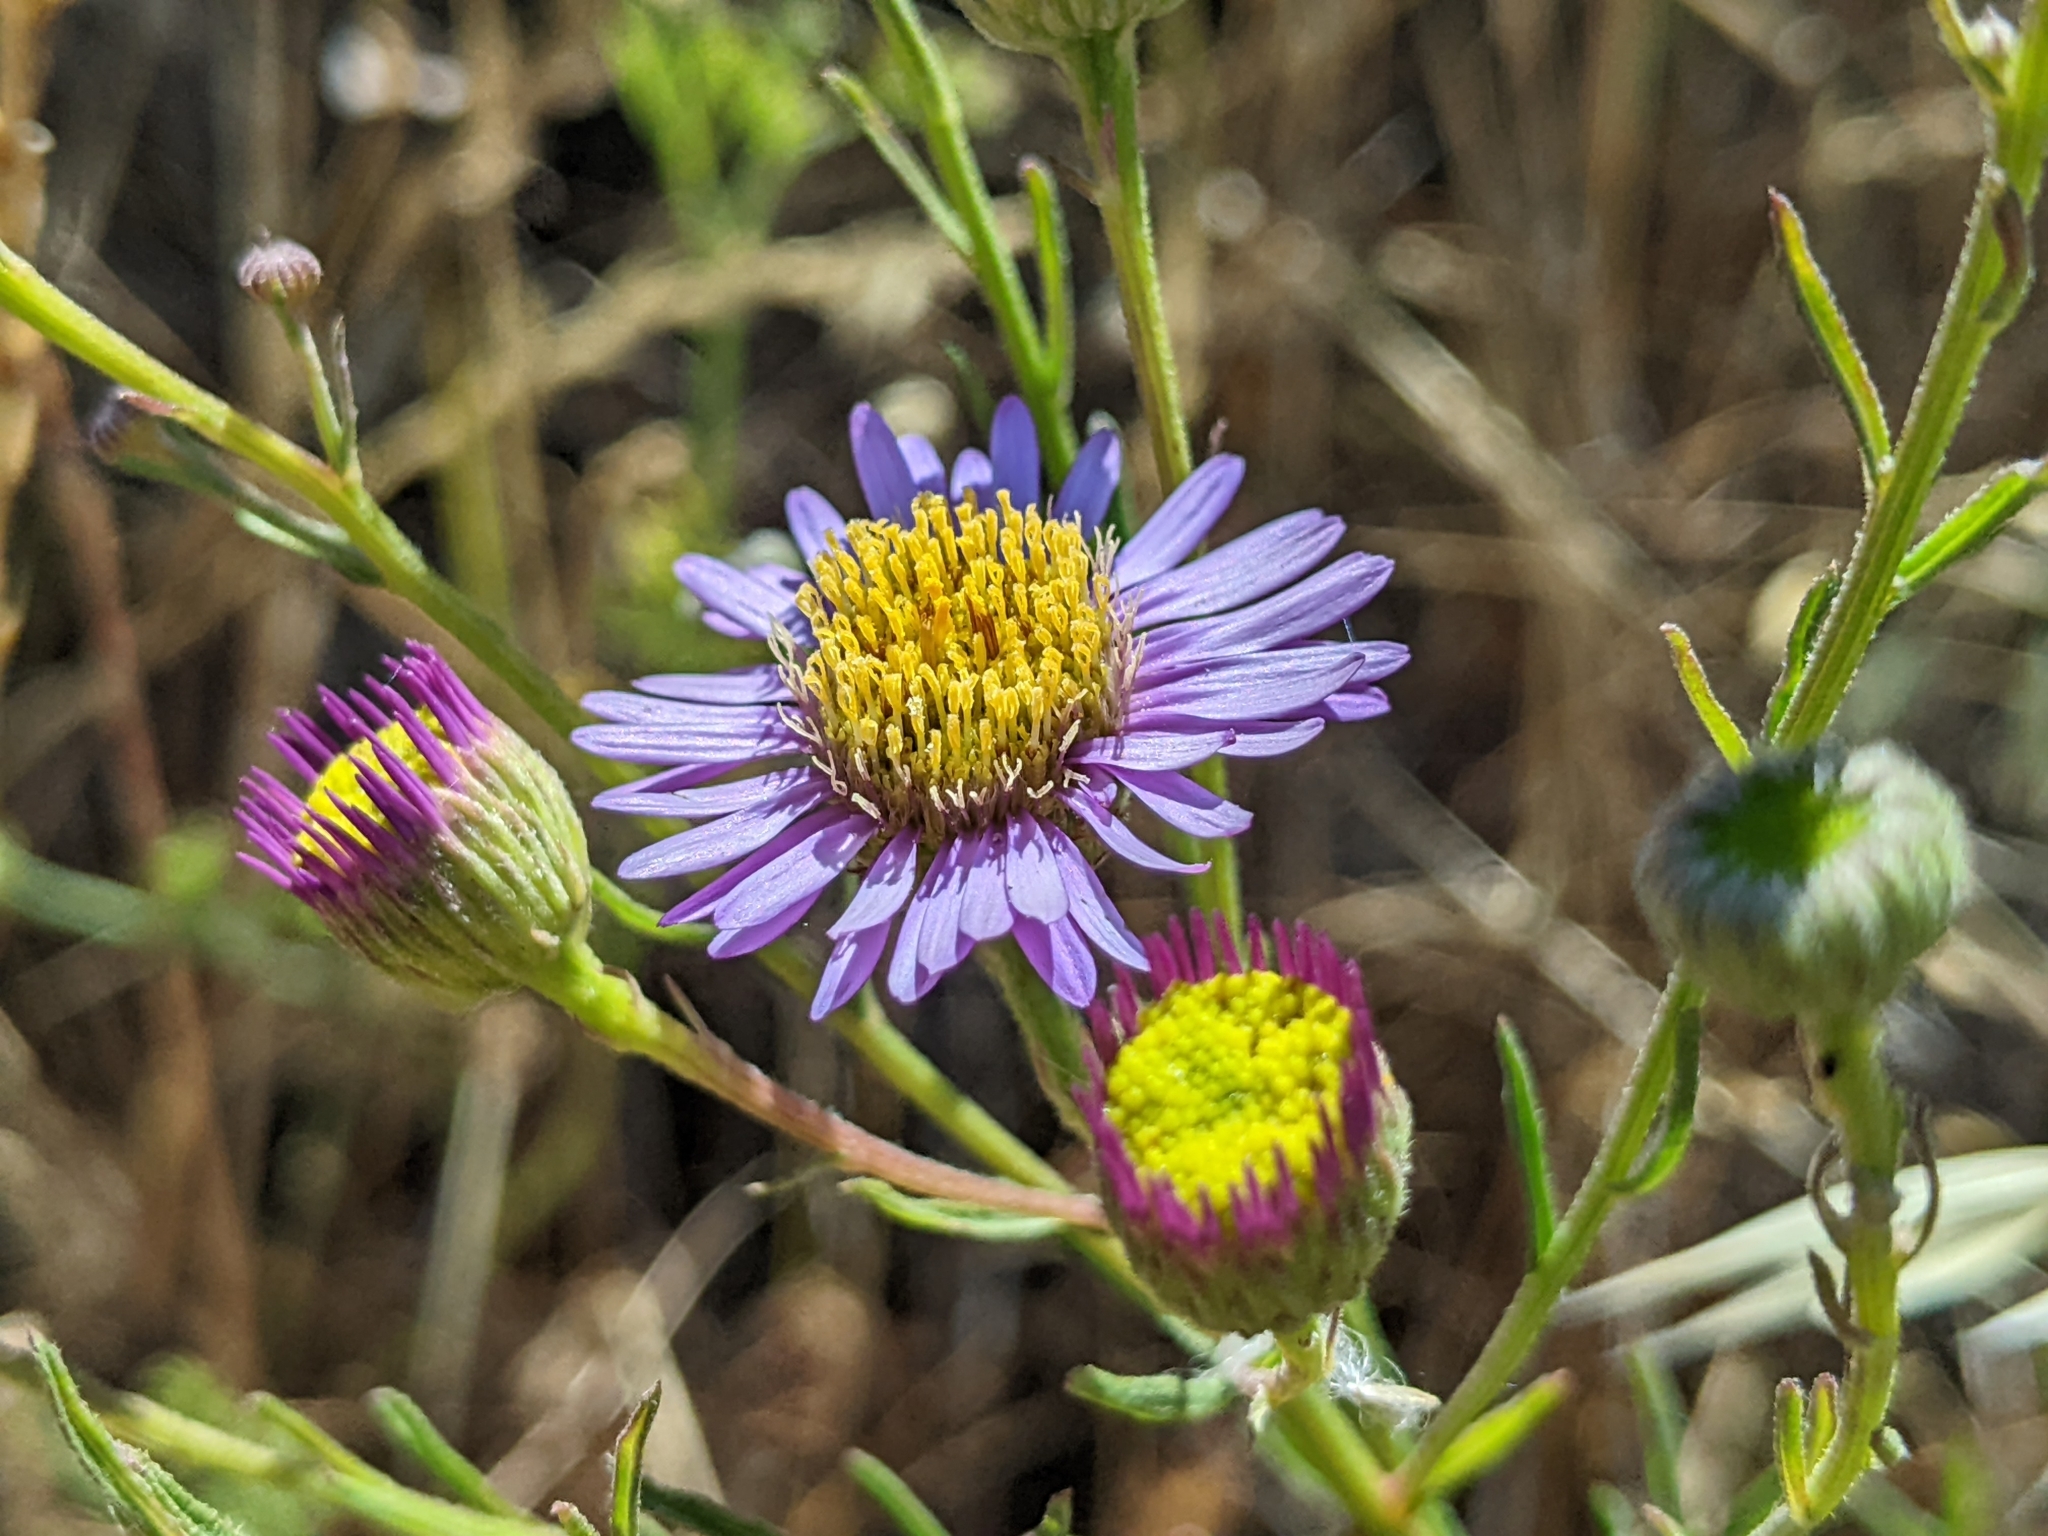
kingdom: Plantae
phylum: Tracheophyta
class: Magnoliopsida
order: Asterales
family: Asteraceae
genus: Erigeron
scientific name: Erigeron foliosus
